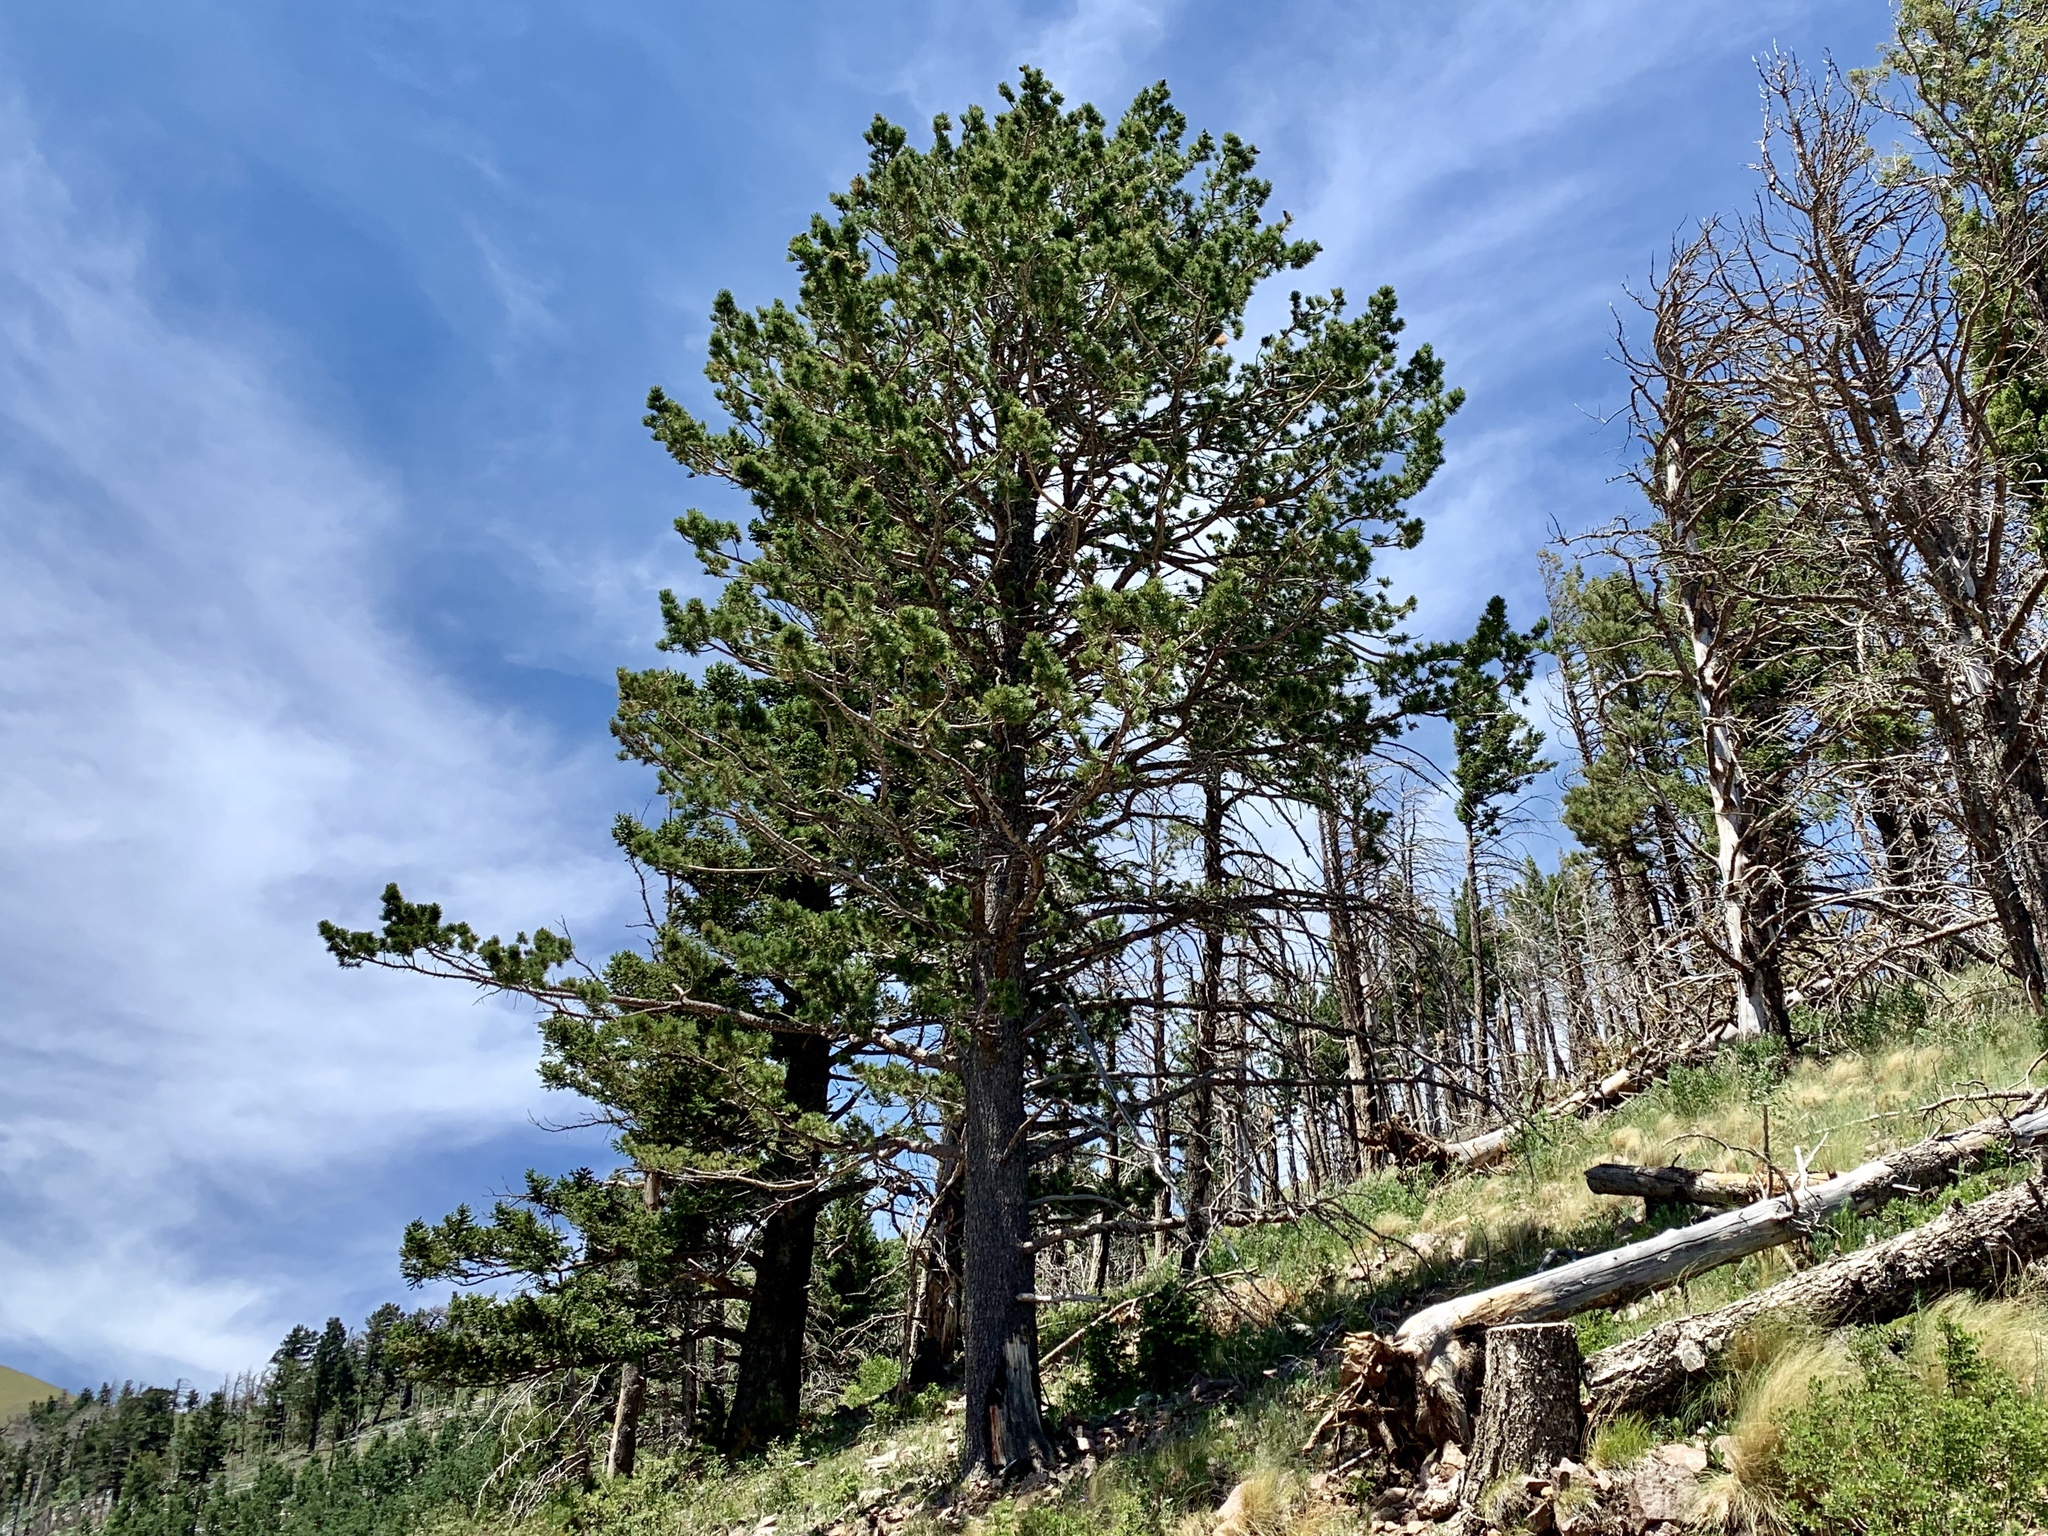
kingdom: Plantae
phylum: Tracheophyta
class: Pinopsida
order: Pinales
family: Pinaceae
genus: Pinus
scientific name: Pinus strobiformis
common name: Southwestern white pine
